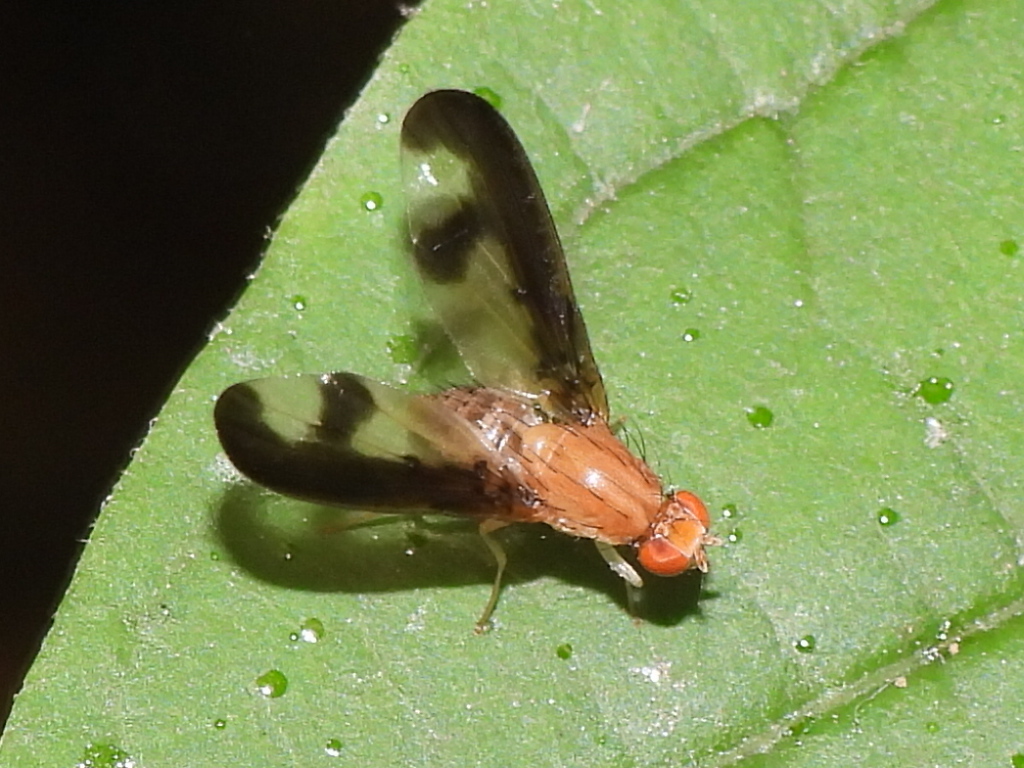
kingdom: Animalia
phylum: Arthropoda
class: Insecta
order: Diptera
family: Pallopteridae
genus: Toxonevra
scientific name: Toxonevra superba
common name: Antlered flutter fly
